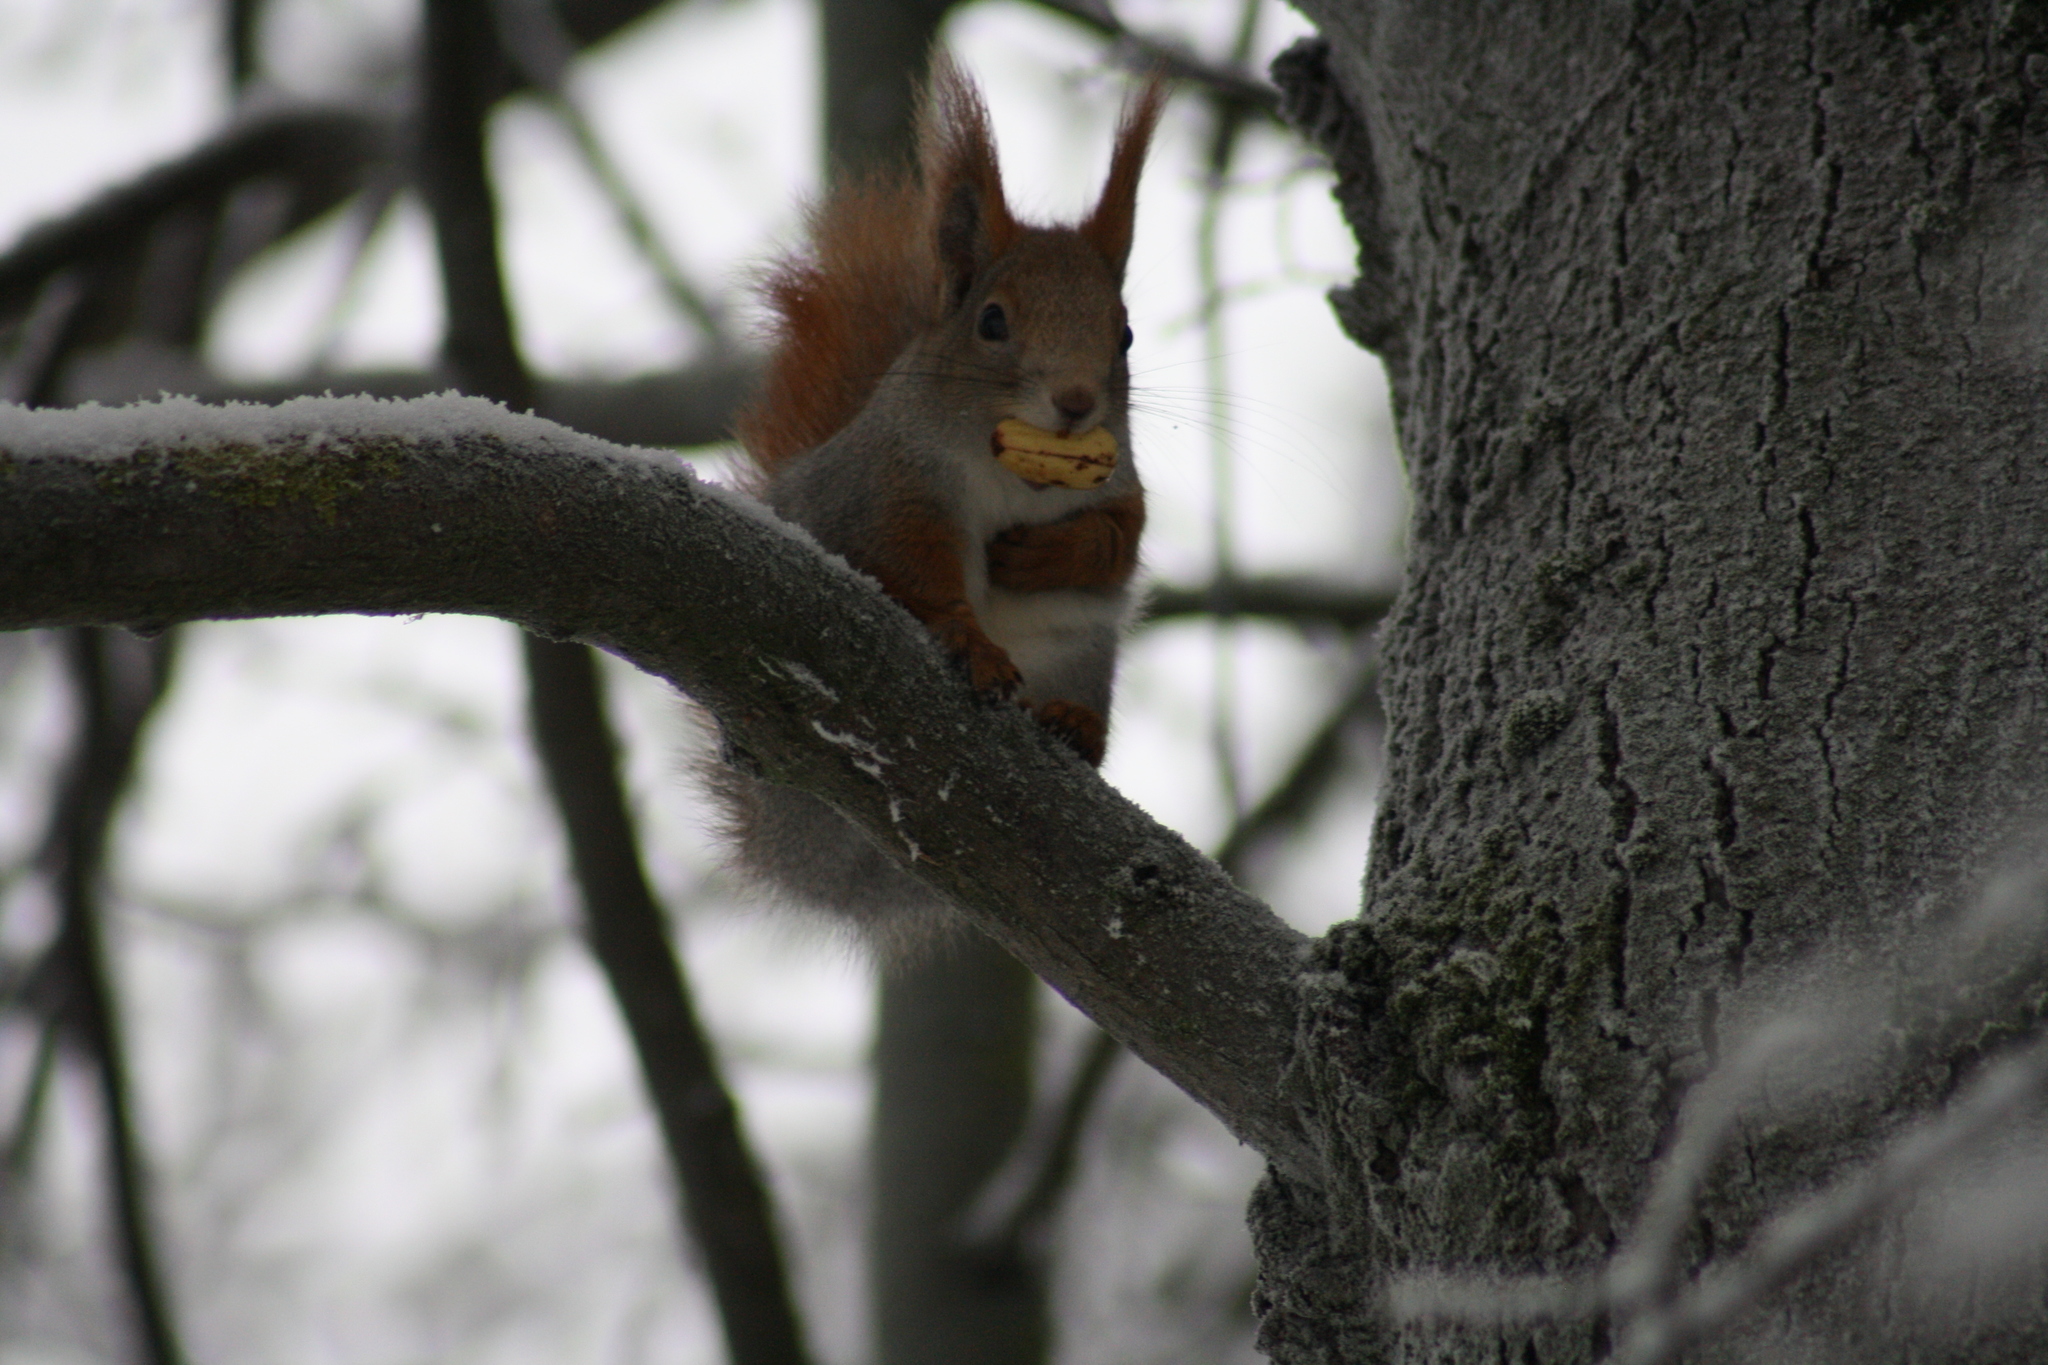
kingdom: Animalia
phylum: Chordata
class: Mammalia
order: Rodentia
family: Sciuridae
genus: Sciurus
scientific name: Sciurus vulgaris
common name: Eurasian red squirrel
